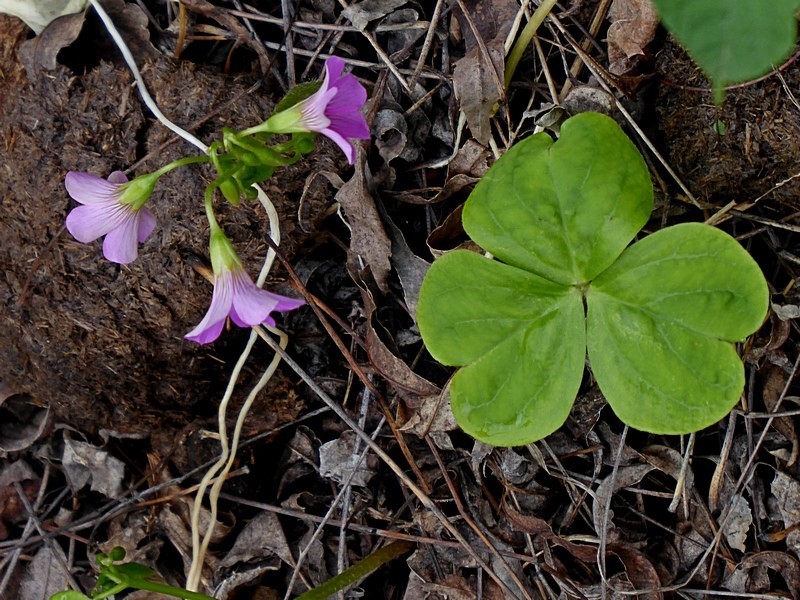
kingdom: Plantae
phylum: Tracheophyta
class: Magnoliopsida
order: Oxalidales
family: Oxalidaceae
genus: Oxalis
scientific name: Oxalis debilis
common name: Large-flowered pink-sorrel
